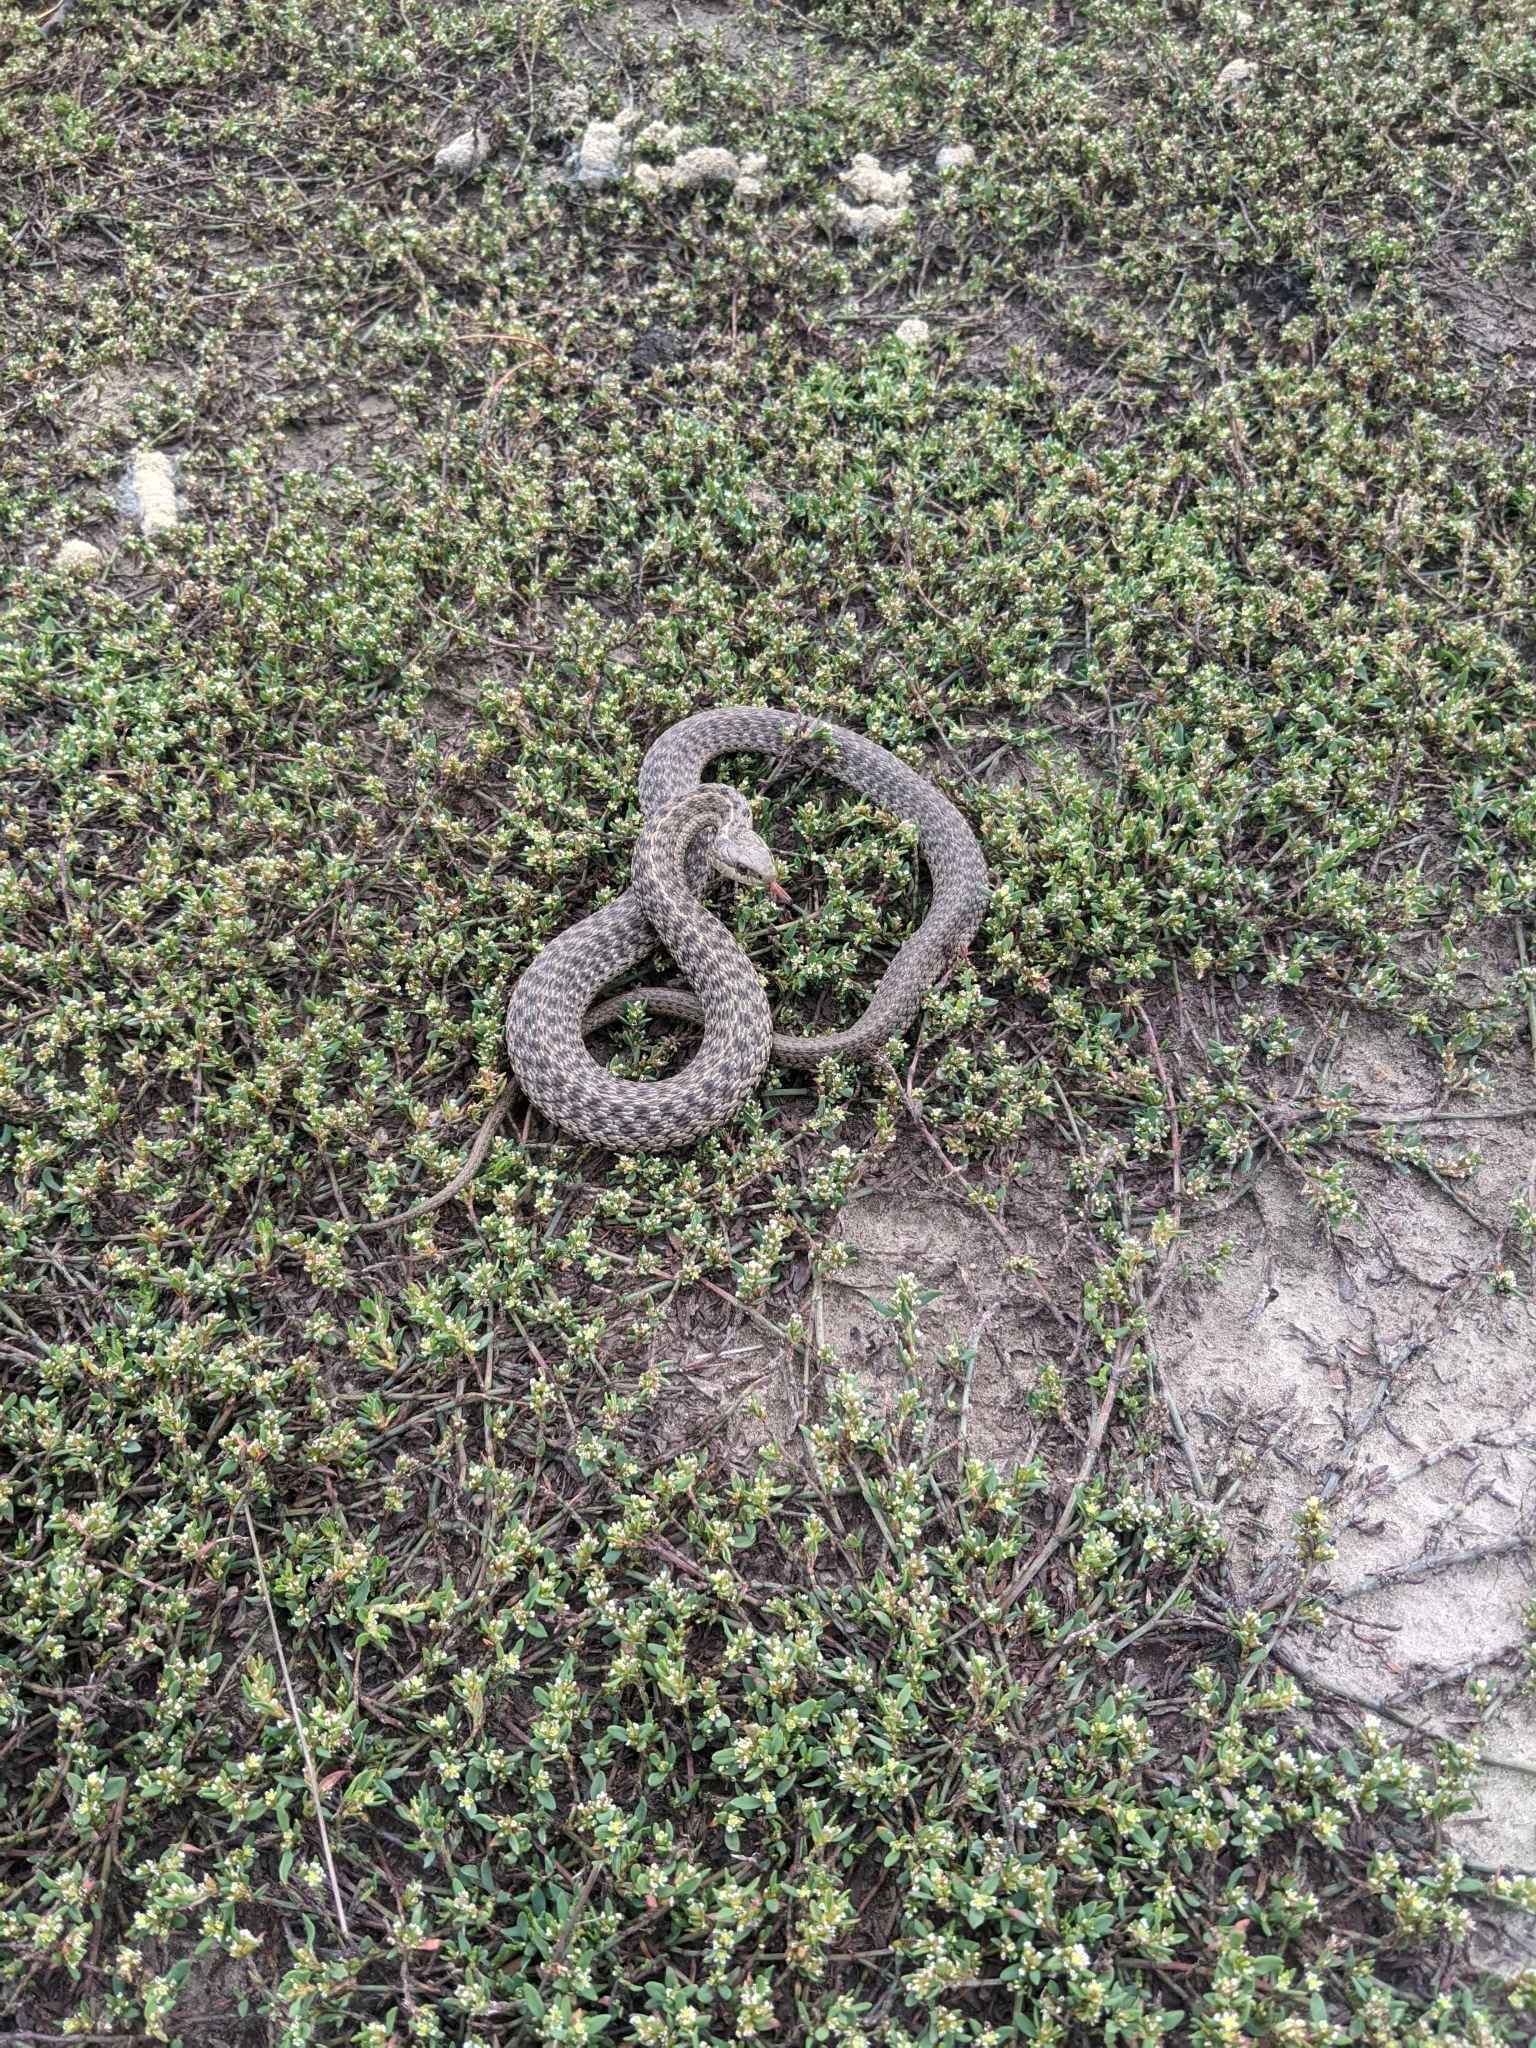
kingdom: Animalia
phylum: Chordata
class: Squamata
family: Colubridae
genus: Thamnophis
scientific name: Thamnophis elegans
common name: Western terrestrial garter snake
